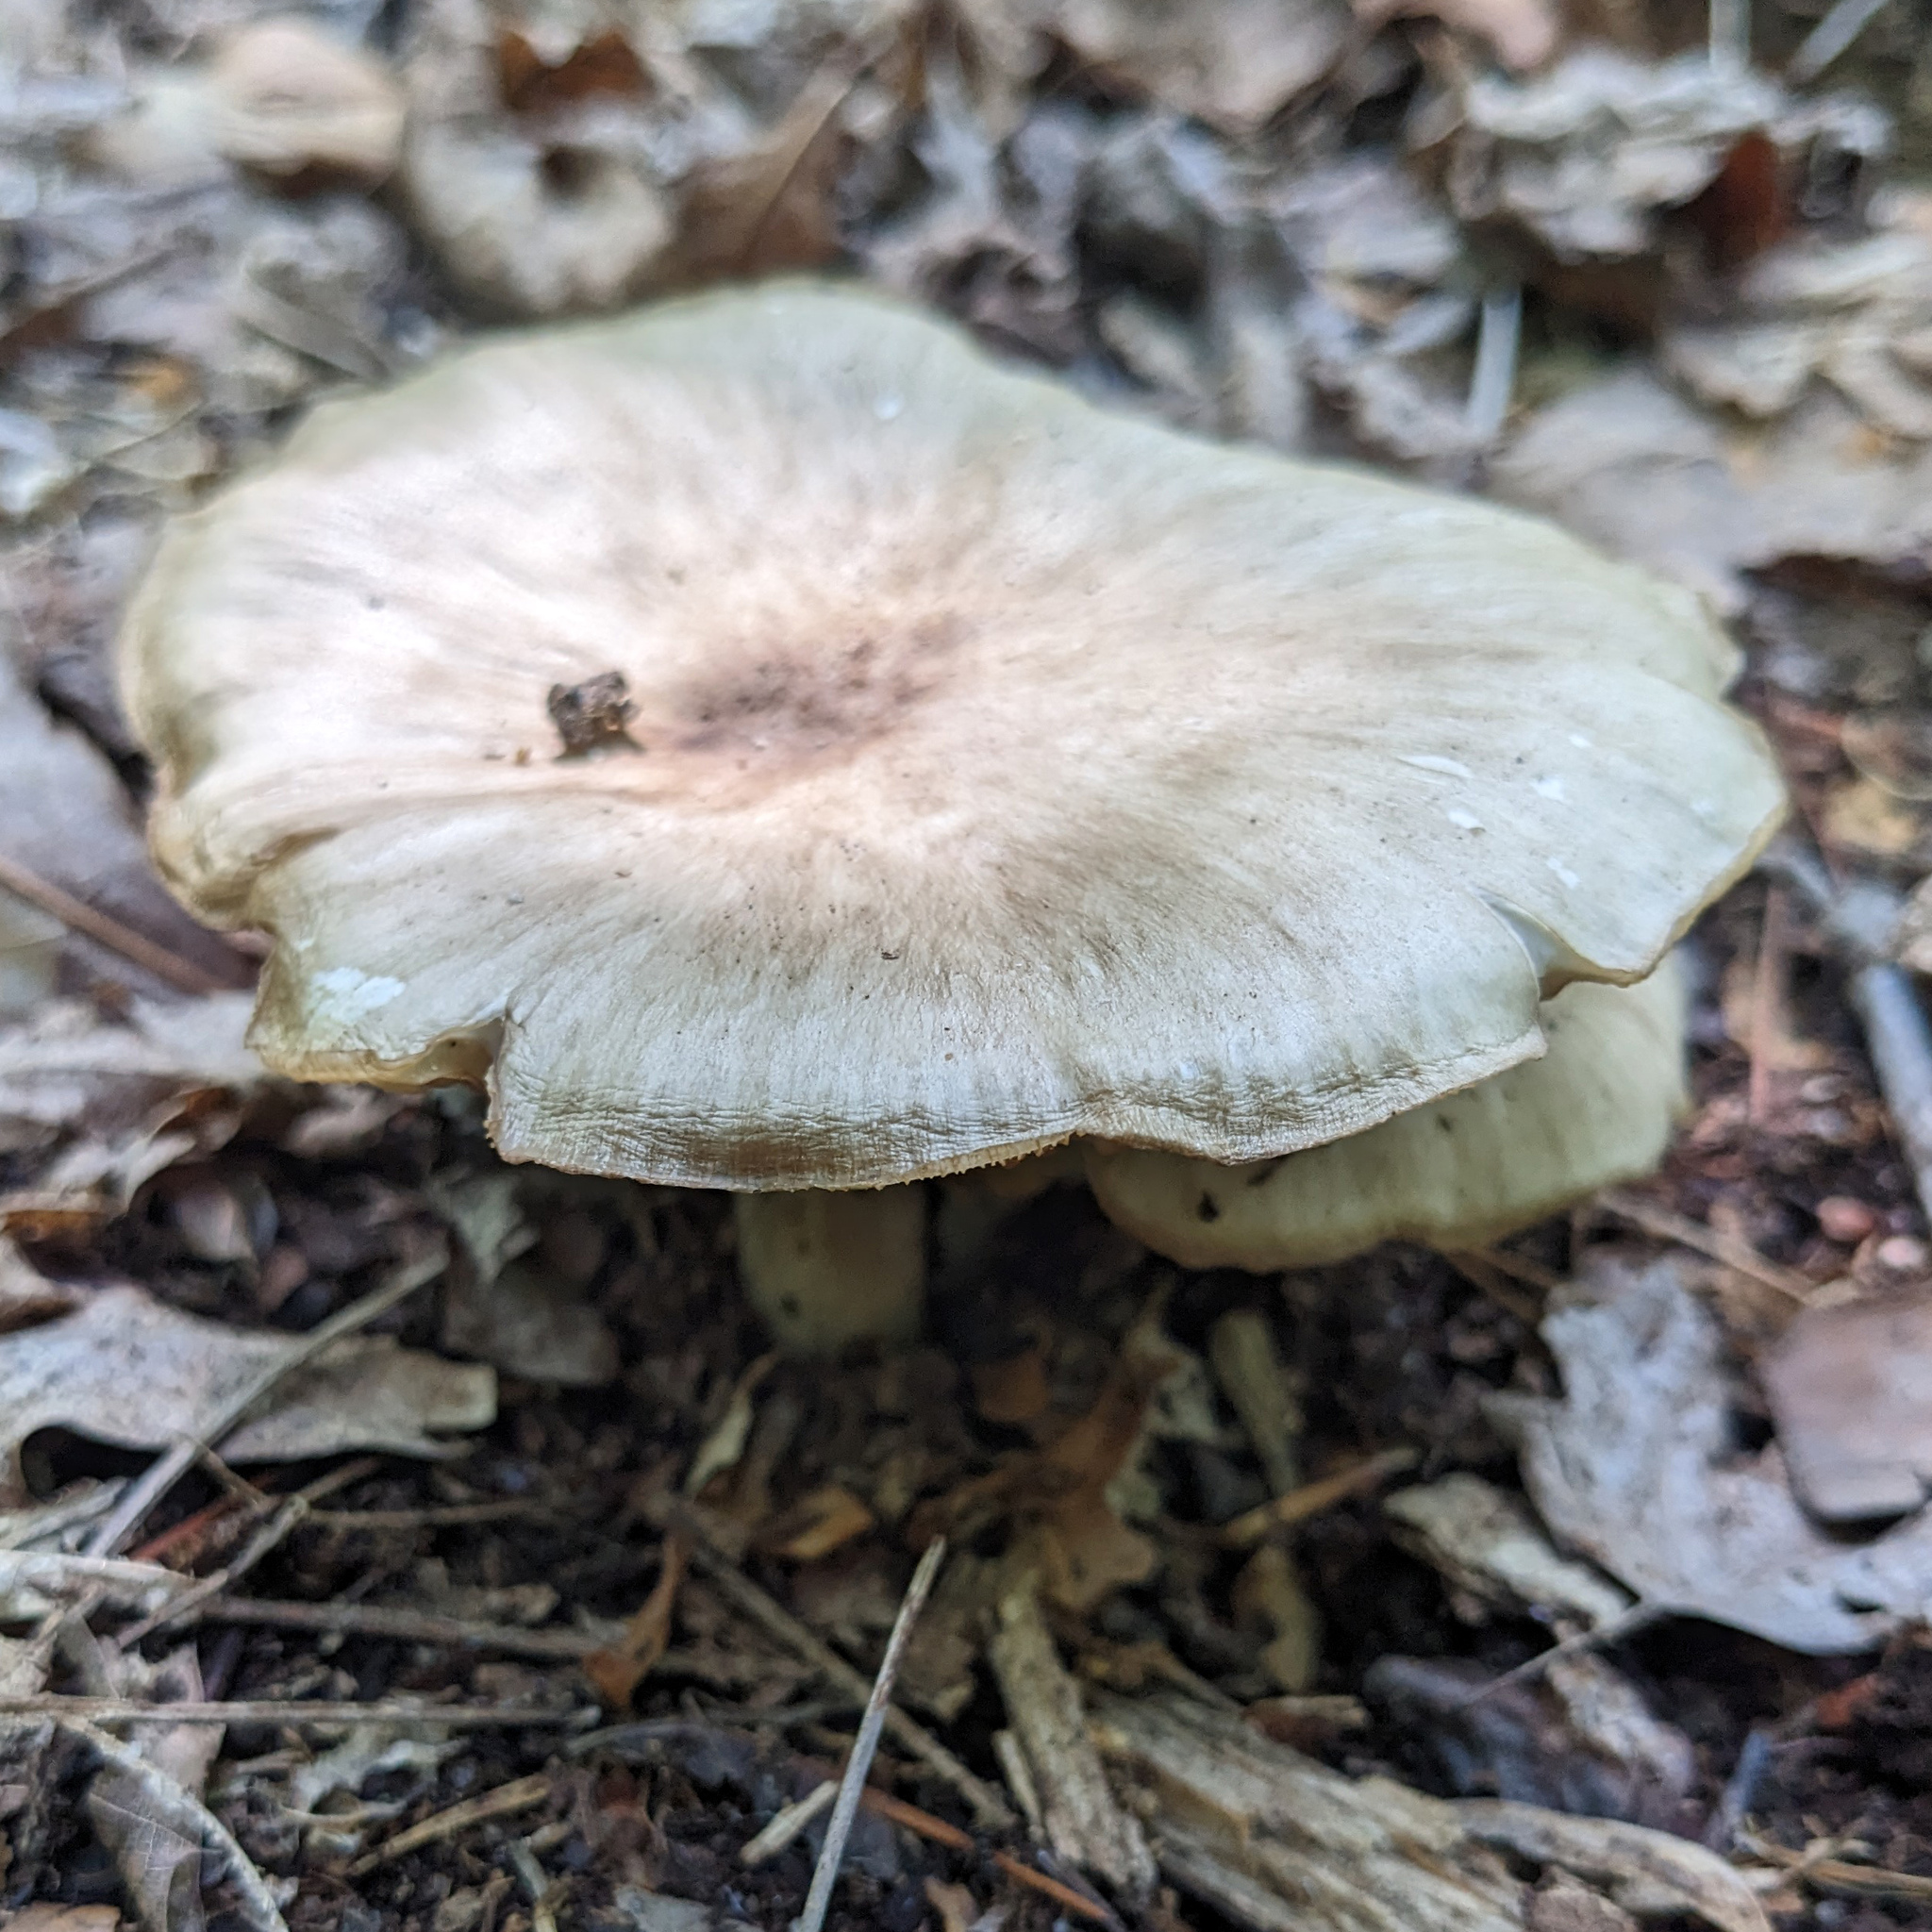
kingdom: Fungi
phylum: Basidiomycota
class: Agaricomycetes
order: Agaricales
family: Tricholomataceae
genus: Megacollybia
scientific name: Megacollybia rodmanii
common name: Eastern american platterful mushroom
